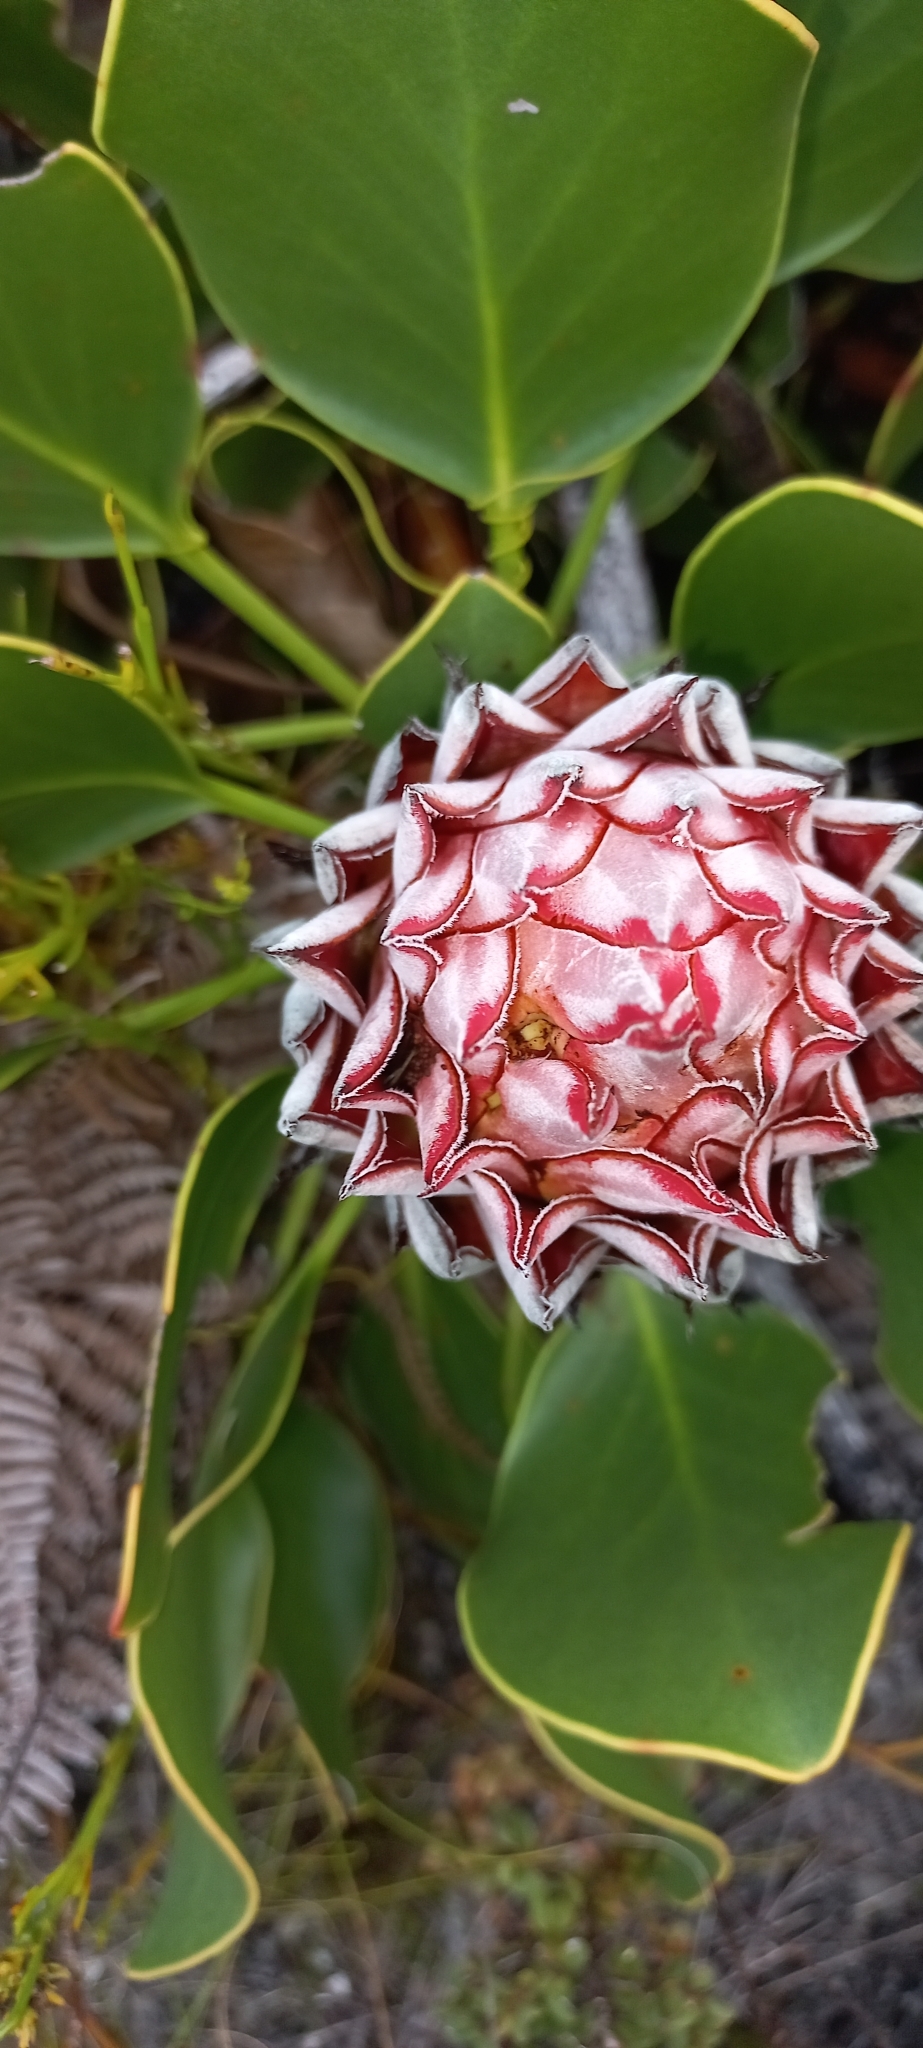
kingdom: Plantae
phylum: Tracheophyta
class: Magnoliopsida
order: Proteales
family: Proteaceae
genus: Protea
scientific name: Protea cynaroides
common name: King protea
